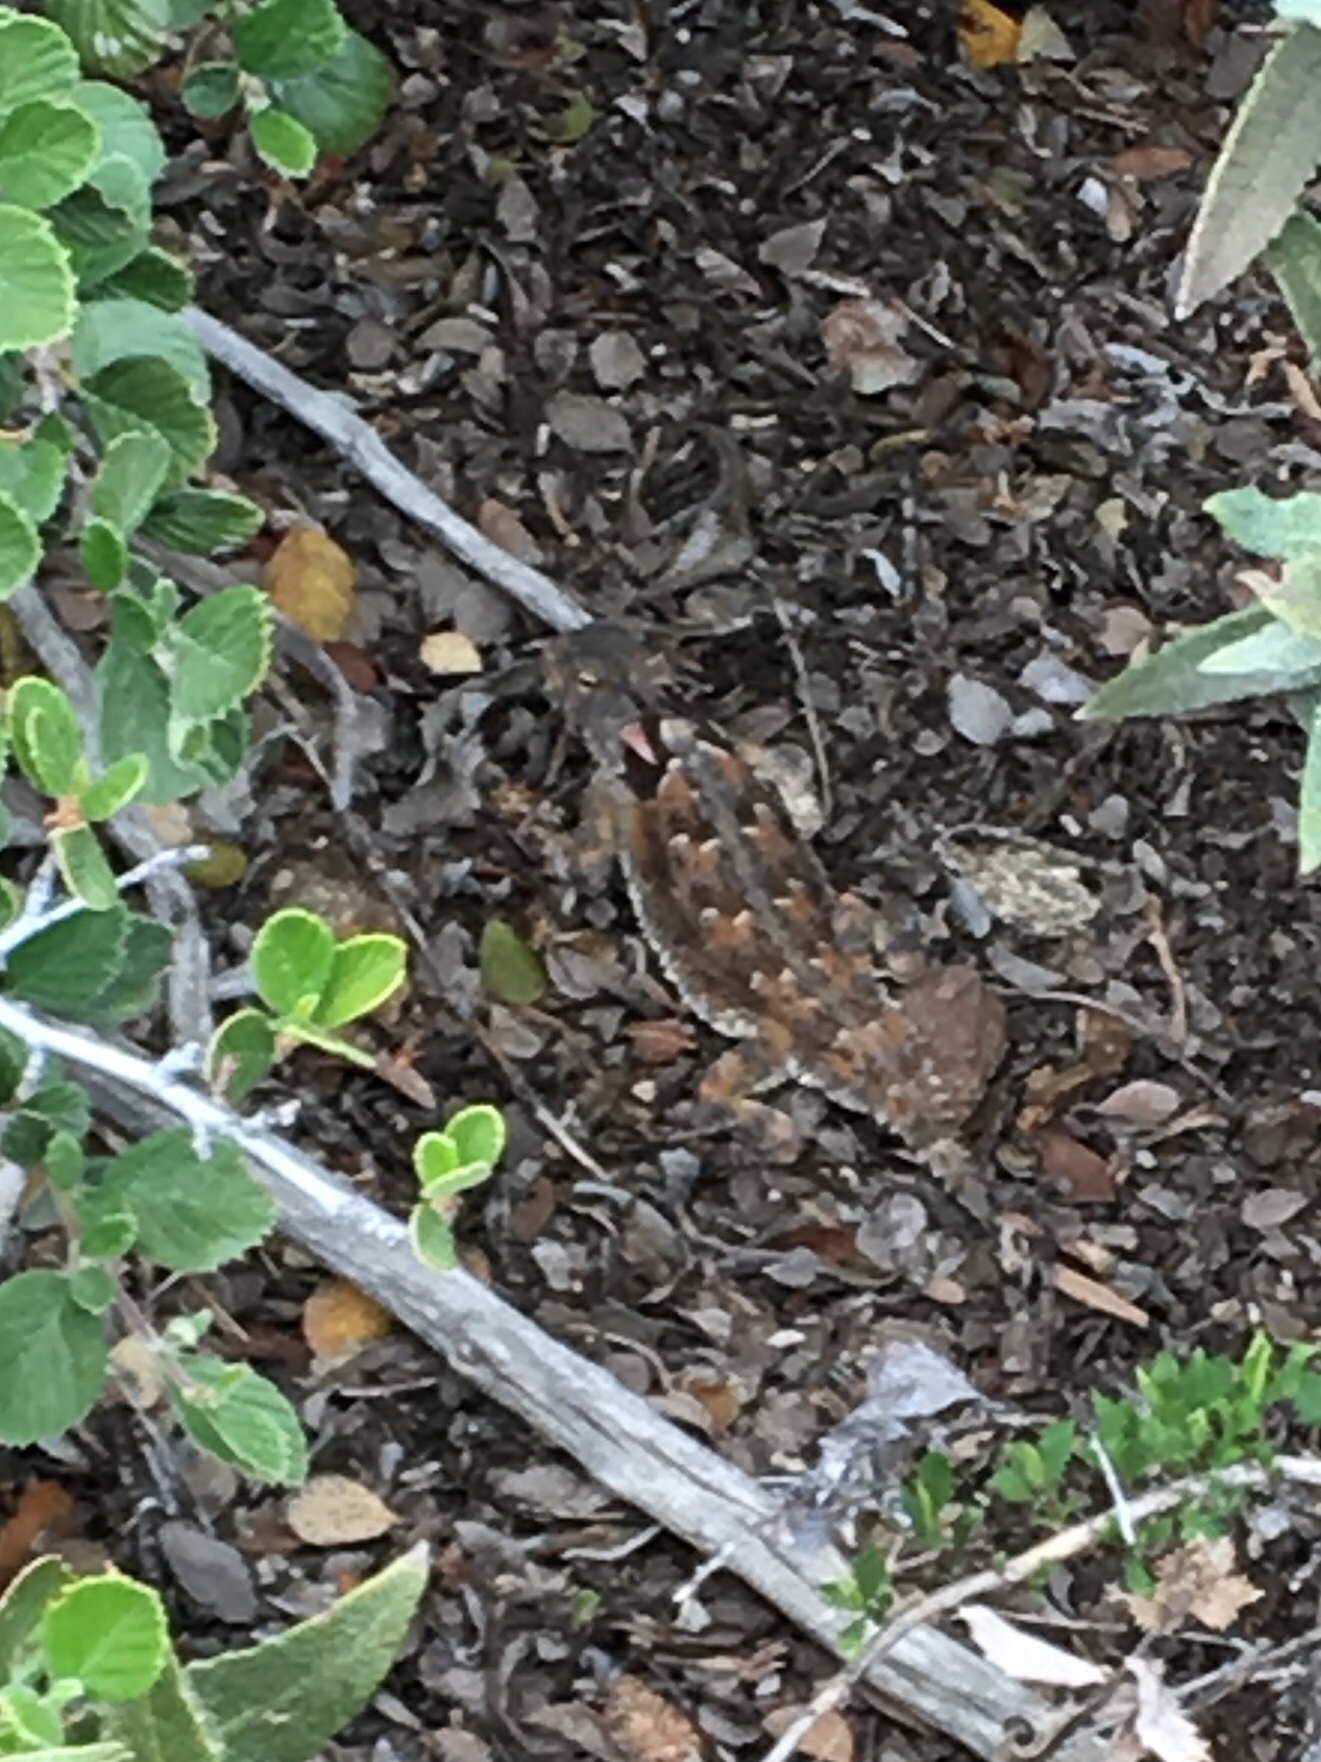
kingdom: Animalia
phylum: Chordata
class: Squamata
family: Phrynosomatidae
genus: Phrynosoma
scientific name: Phrynosoma blainvillii
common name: San diego horned lizard
